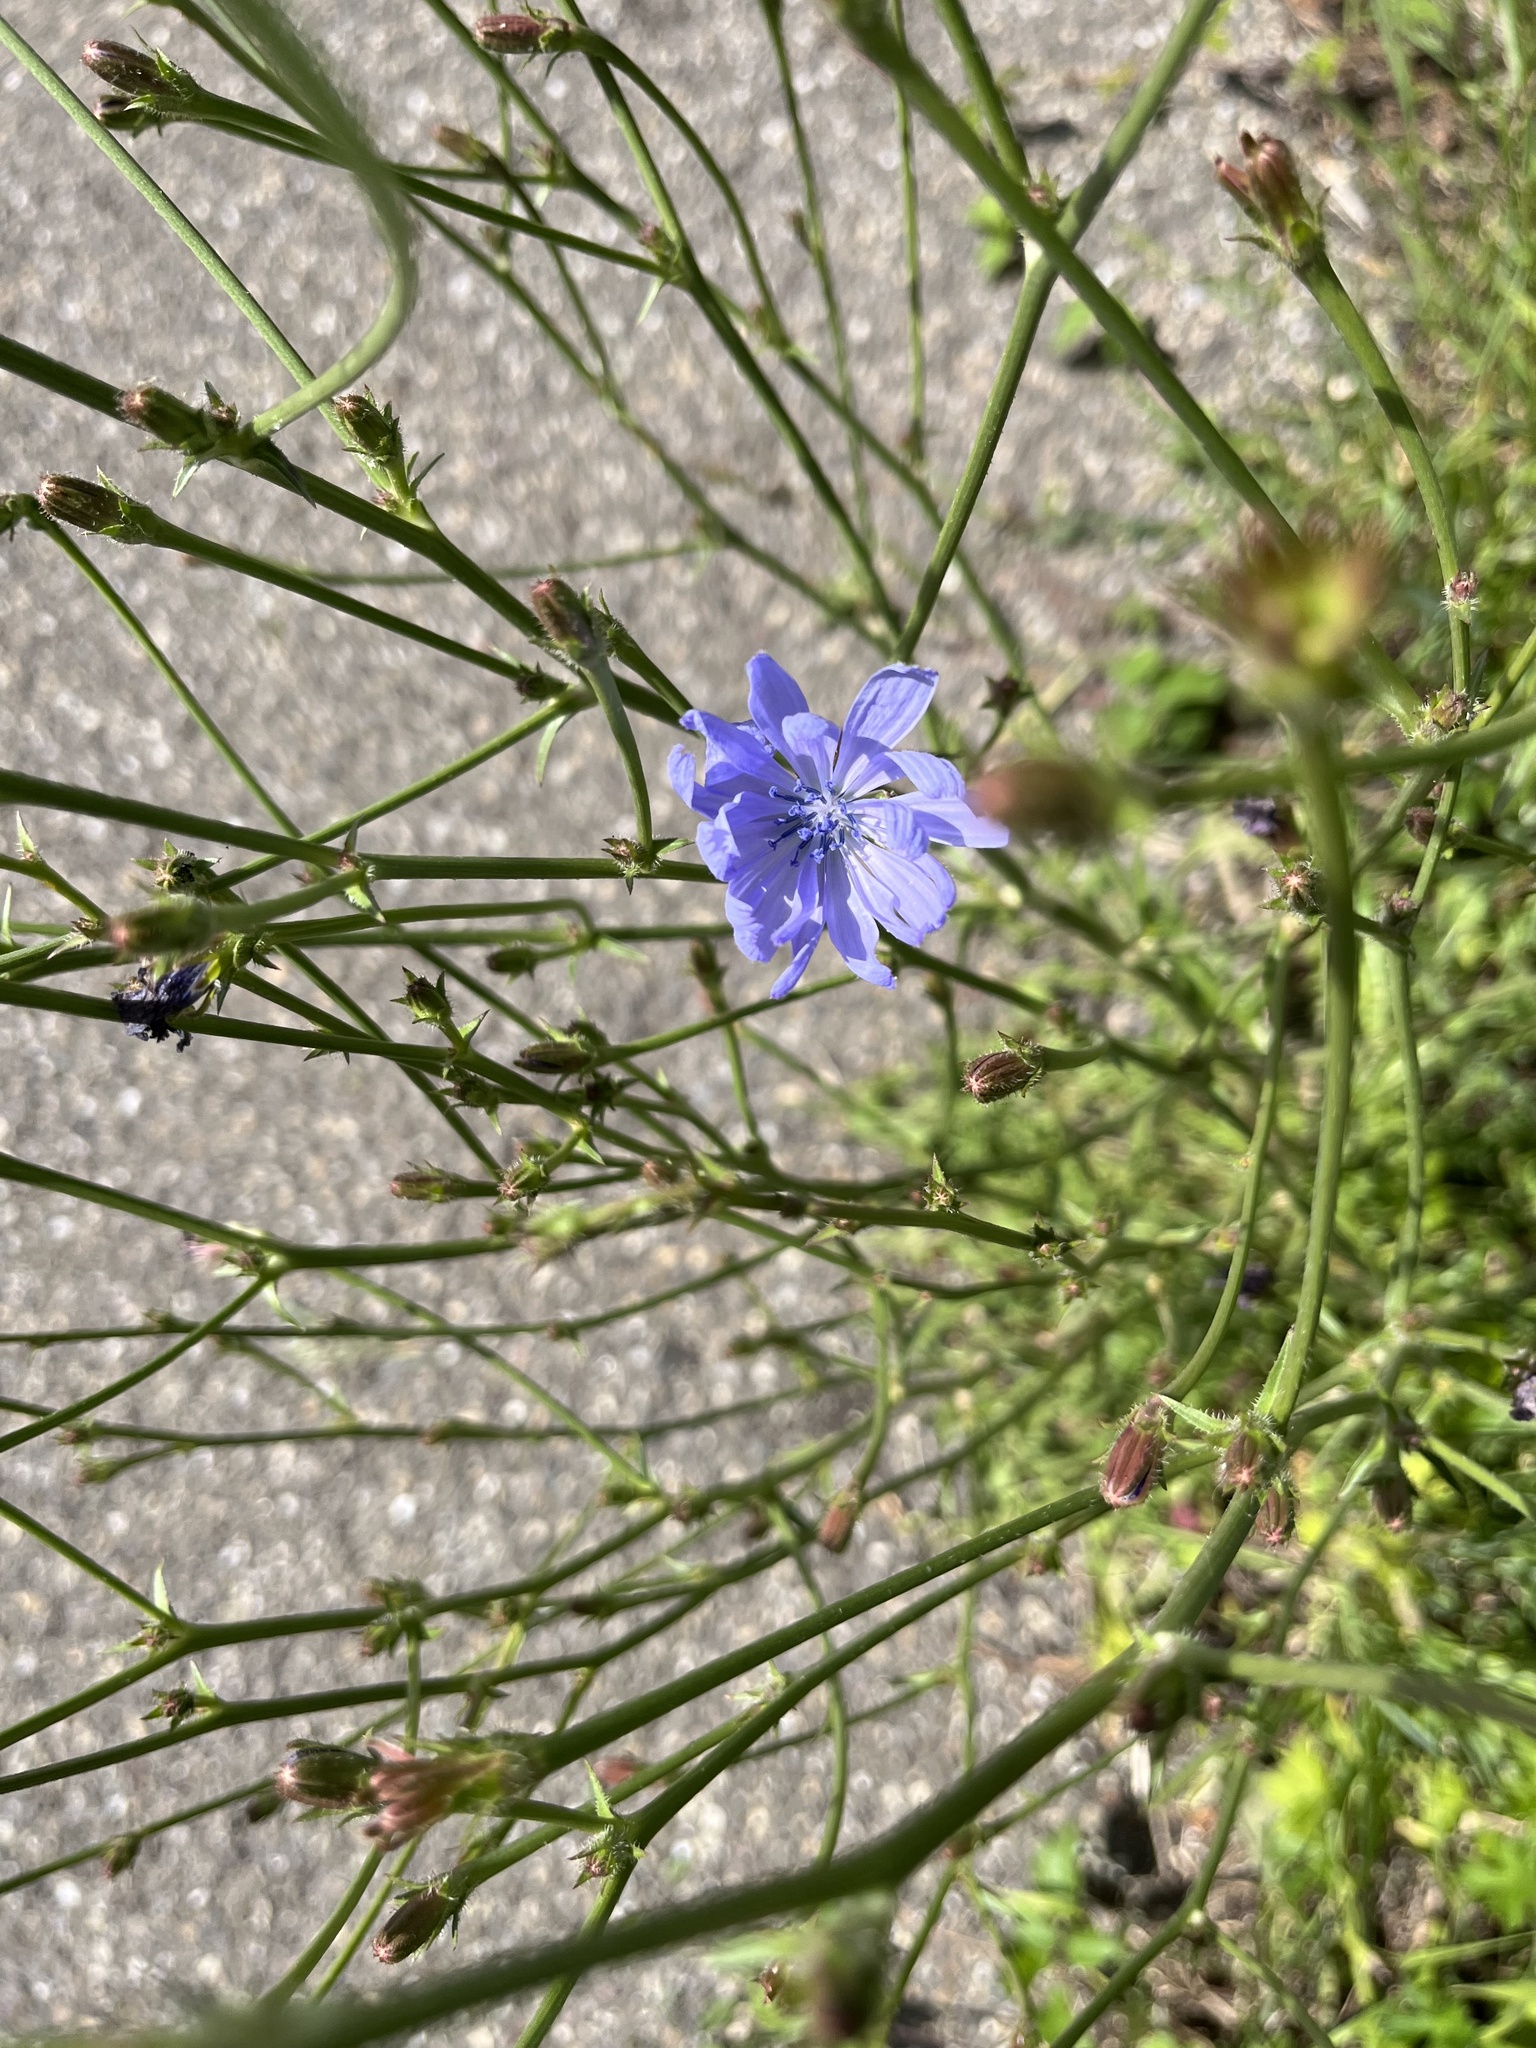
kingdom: Plantae
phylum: Tracheophyta
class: Magnoliopsida
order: Asterales
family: Asteraceae
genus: Cichorium
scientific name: Cichorium intybus
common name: Chicory
